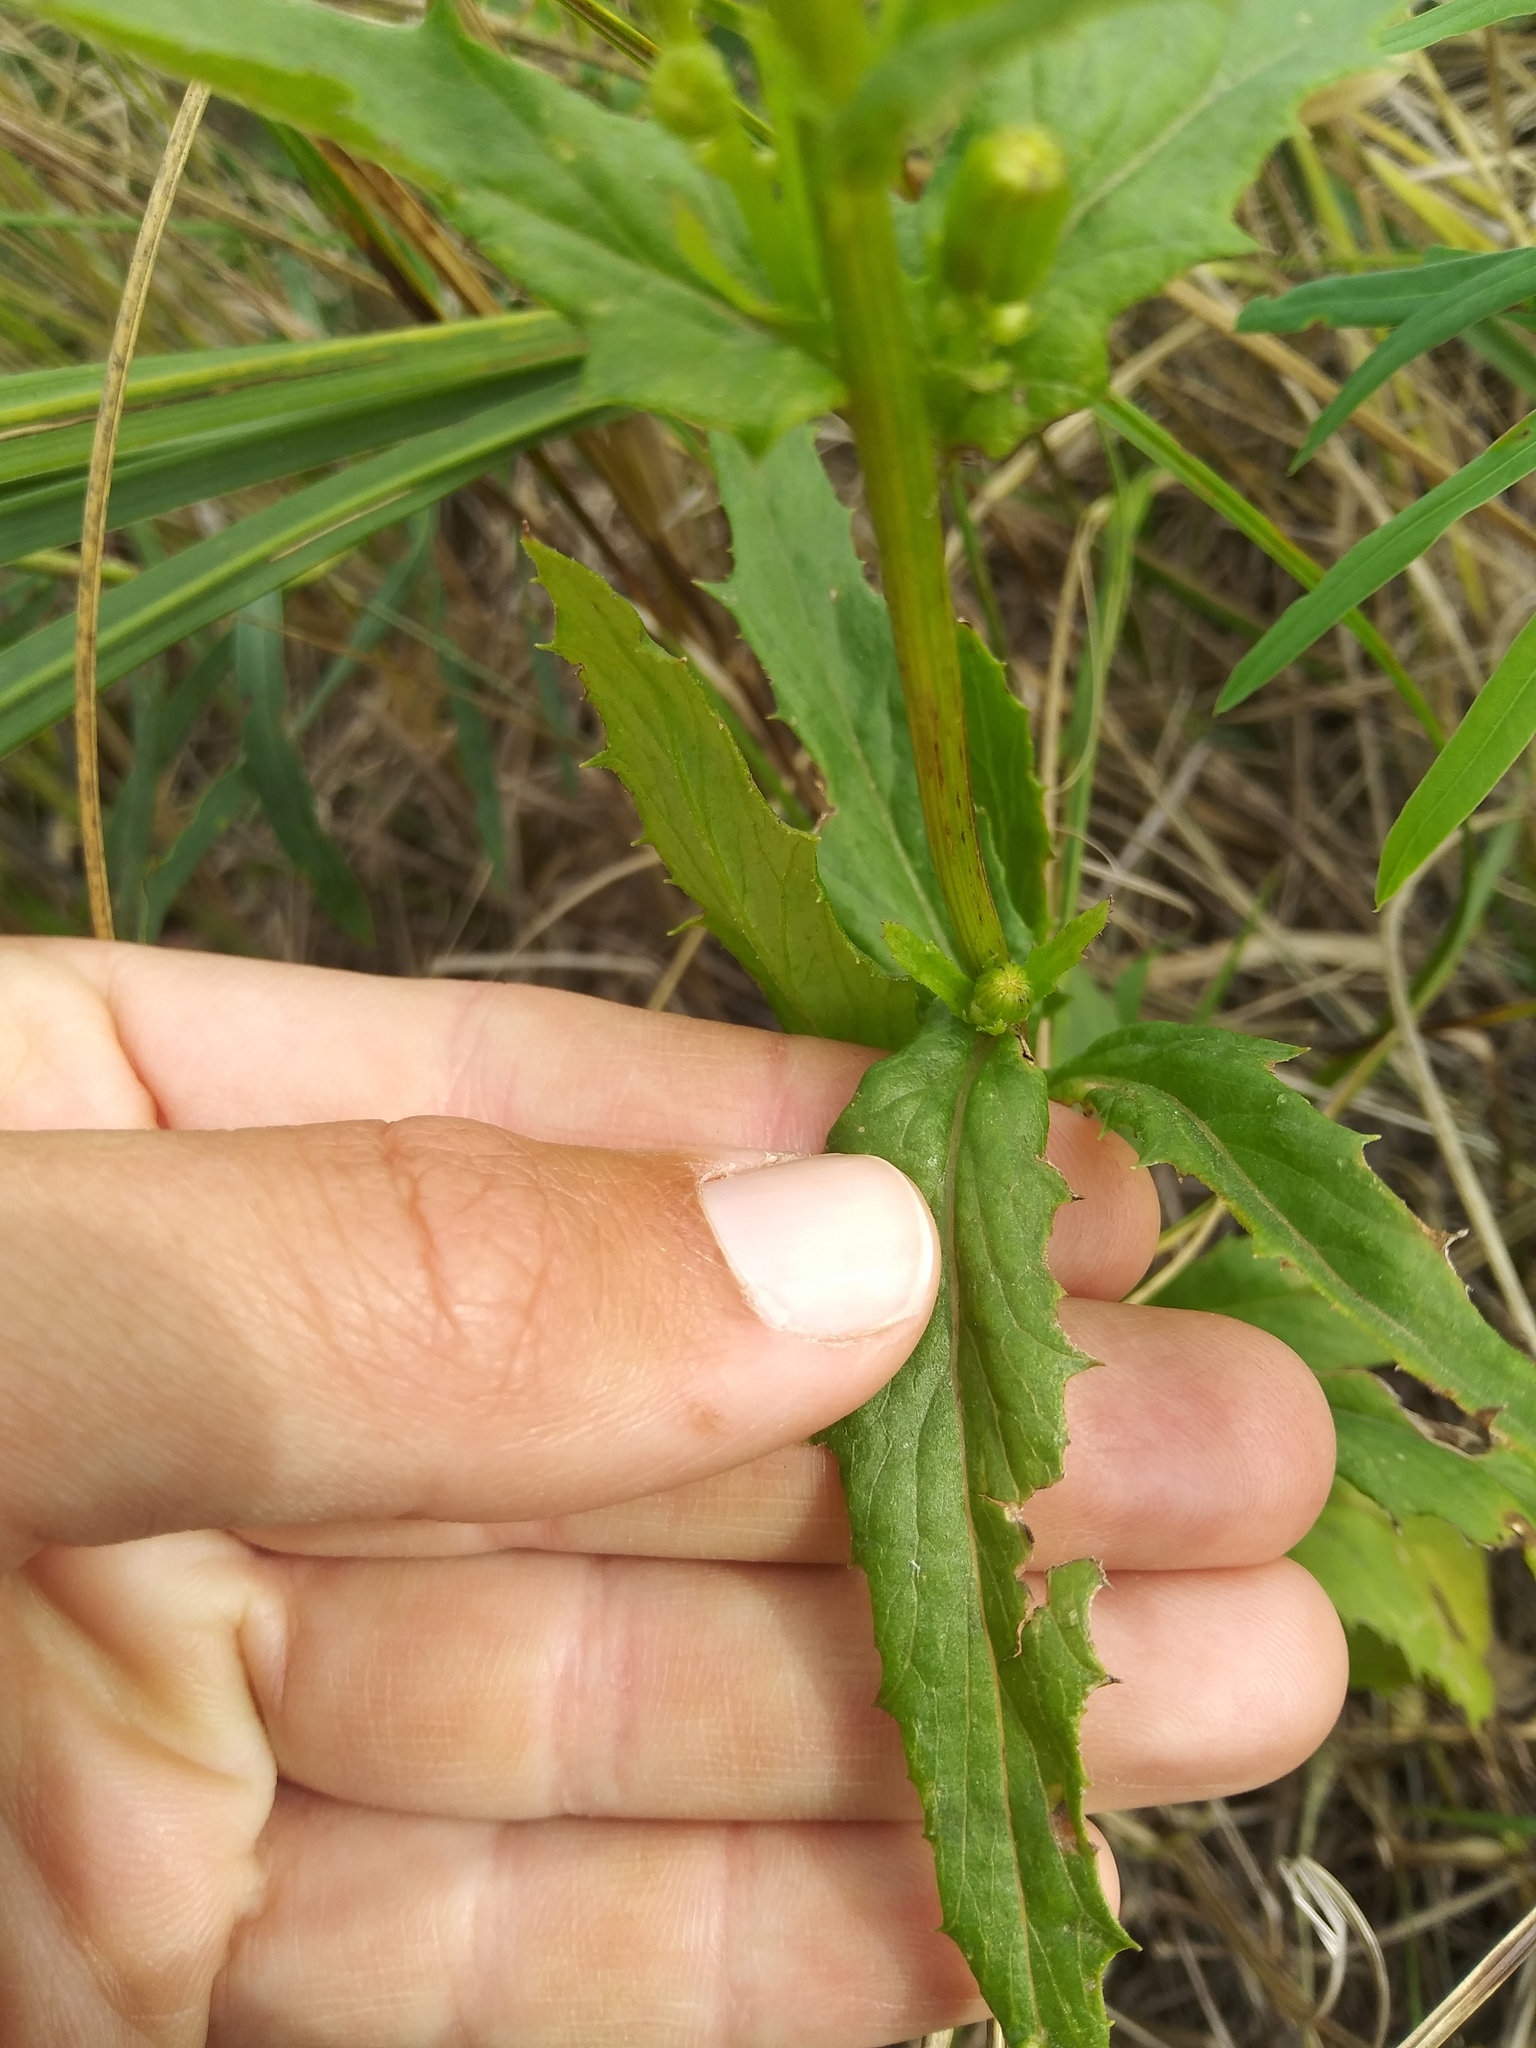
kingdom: Plantae
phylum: Tracheophyta
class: Magnoliopsida
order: Asterales
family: Asteraceae
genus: Erechtites
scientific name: Erechtites hieraciifolius
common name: American burnweed
